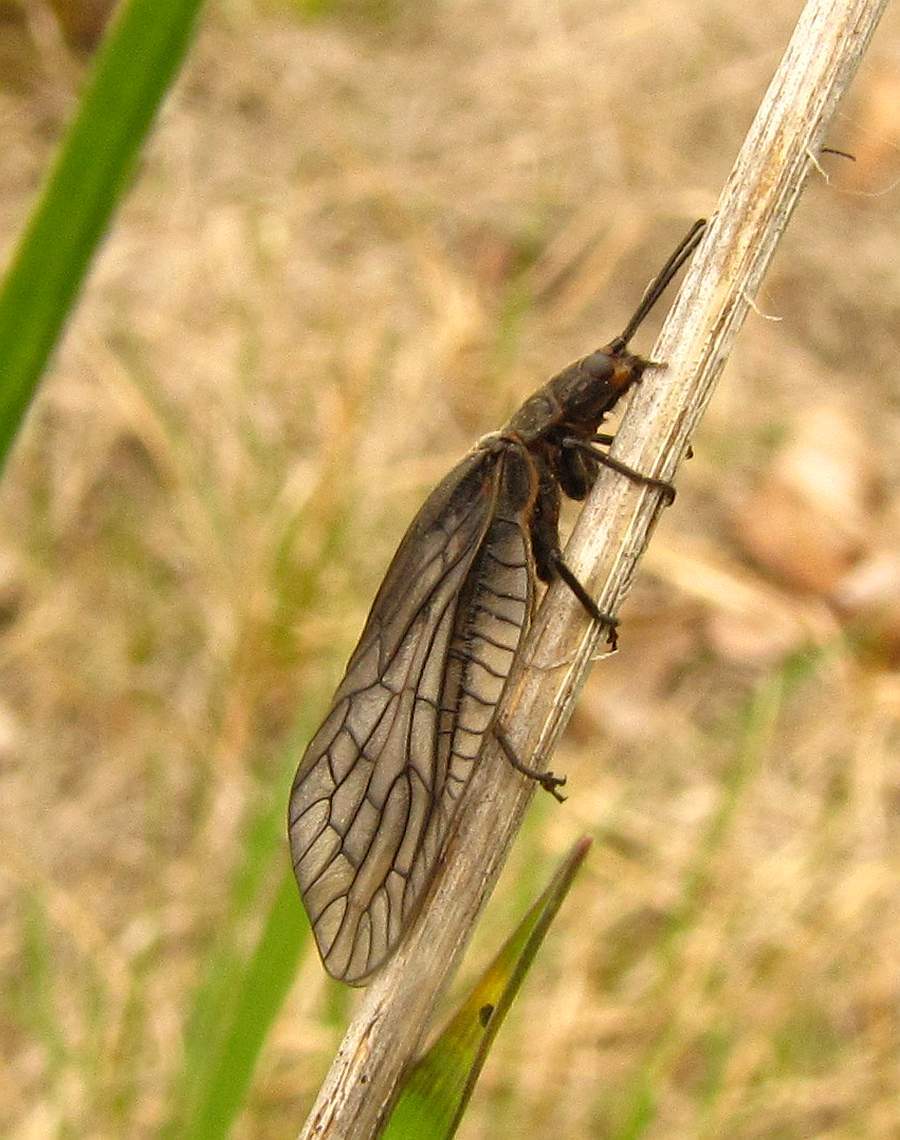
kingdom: Animalia
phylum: Arthropoda
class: Insecta
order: Megaloptera
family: Sialidae
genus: Sialis
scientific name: Sialis
